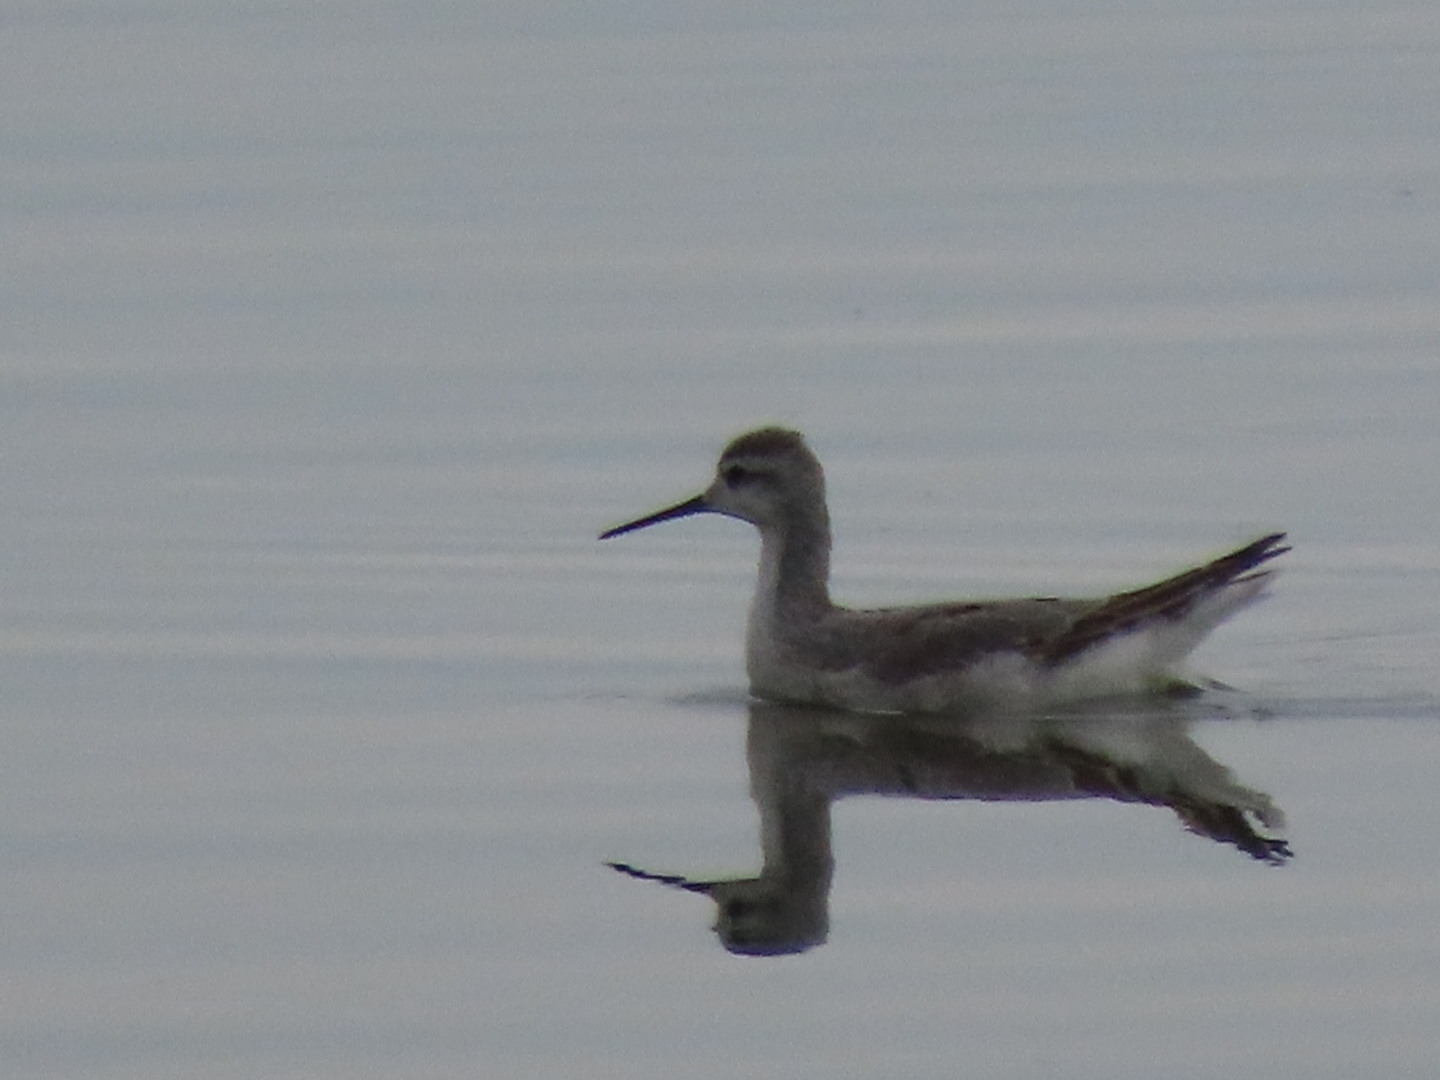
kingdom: Animalia
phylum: Chordata
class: Aves
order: Charadriiformes
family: Scolopacidae
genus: Phalaropus
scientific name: Phalaropus tricolor
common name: Wilson's phalarope
